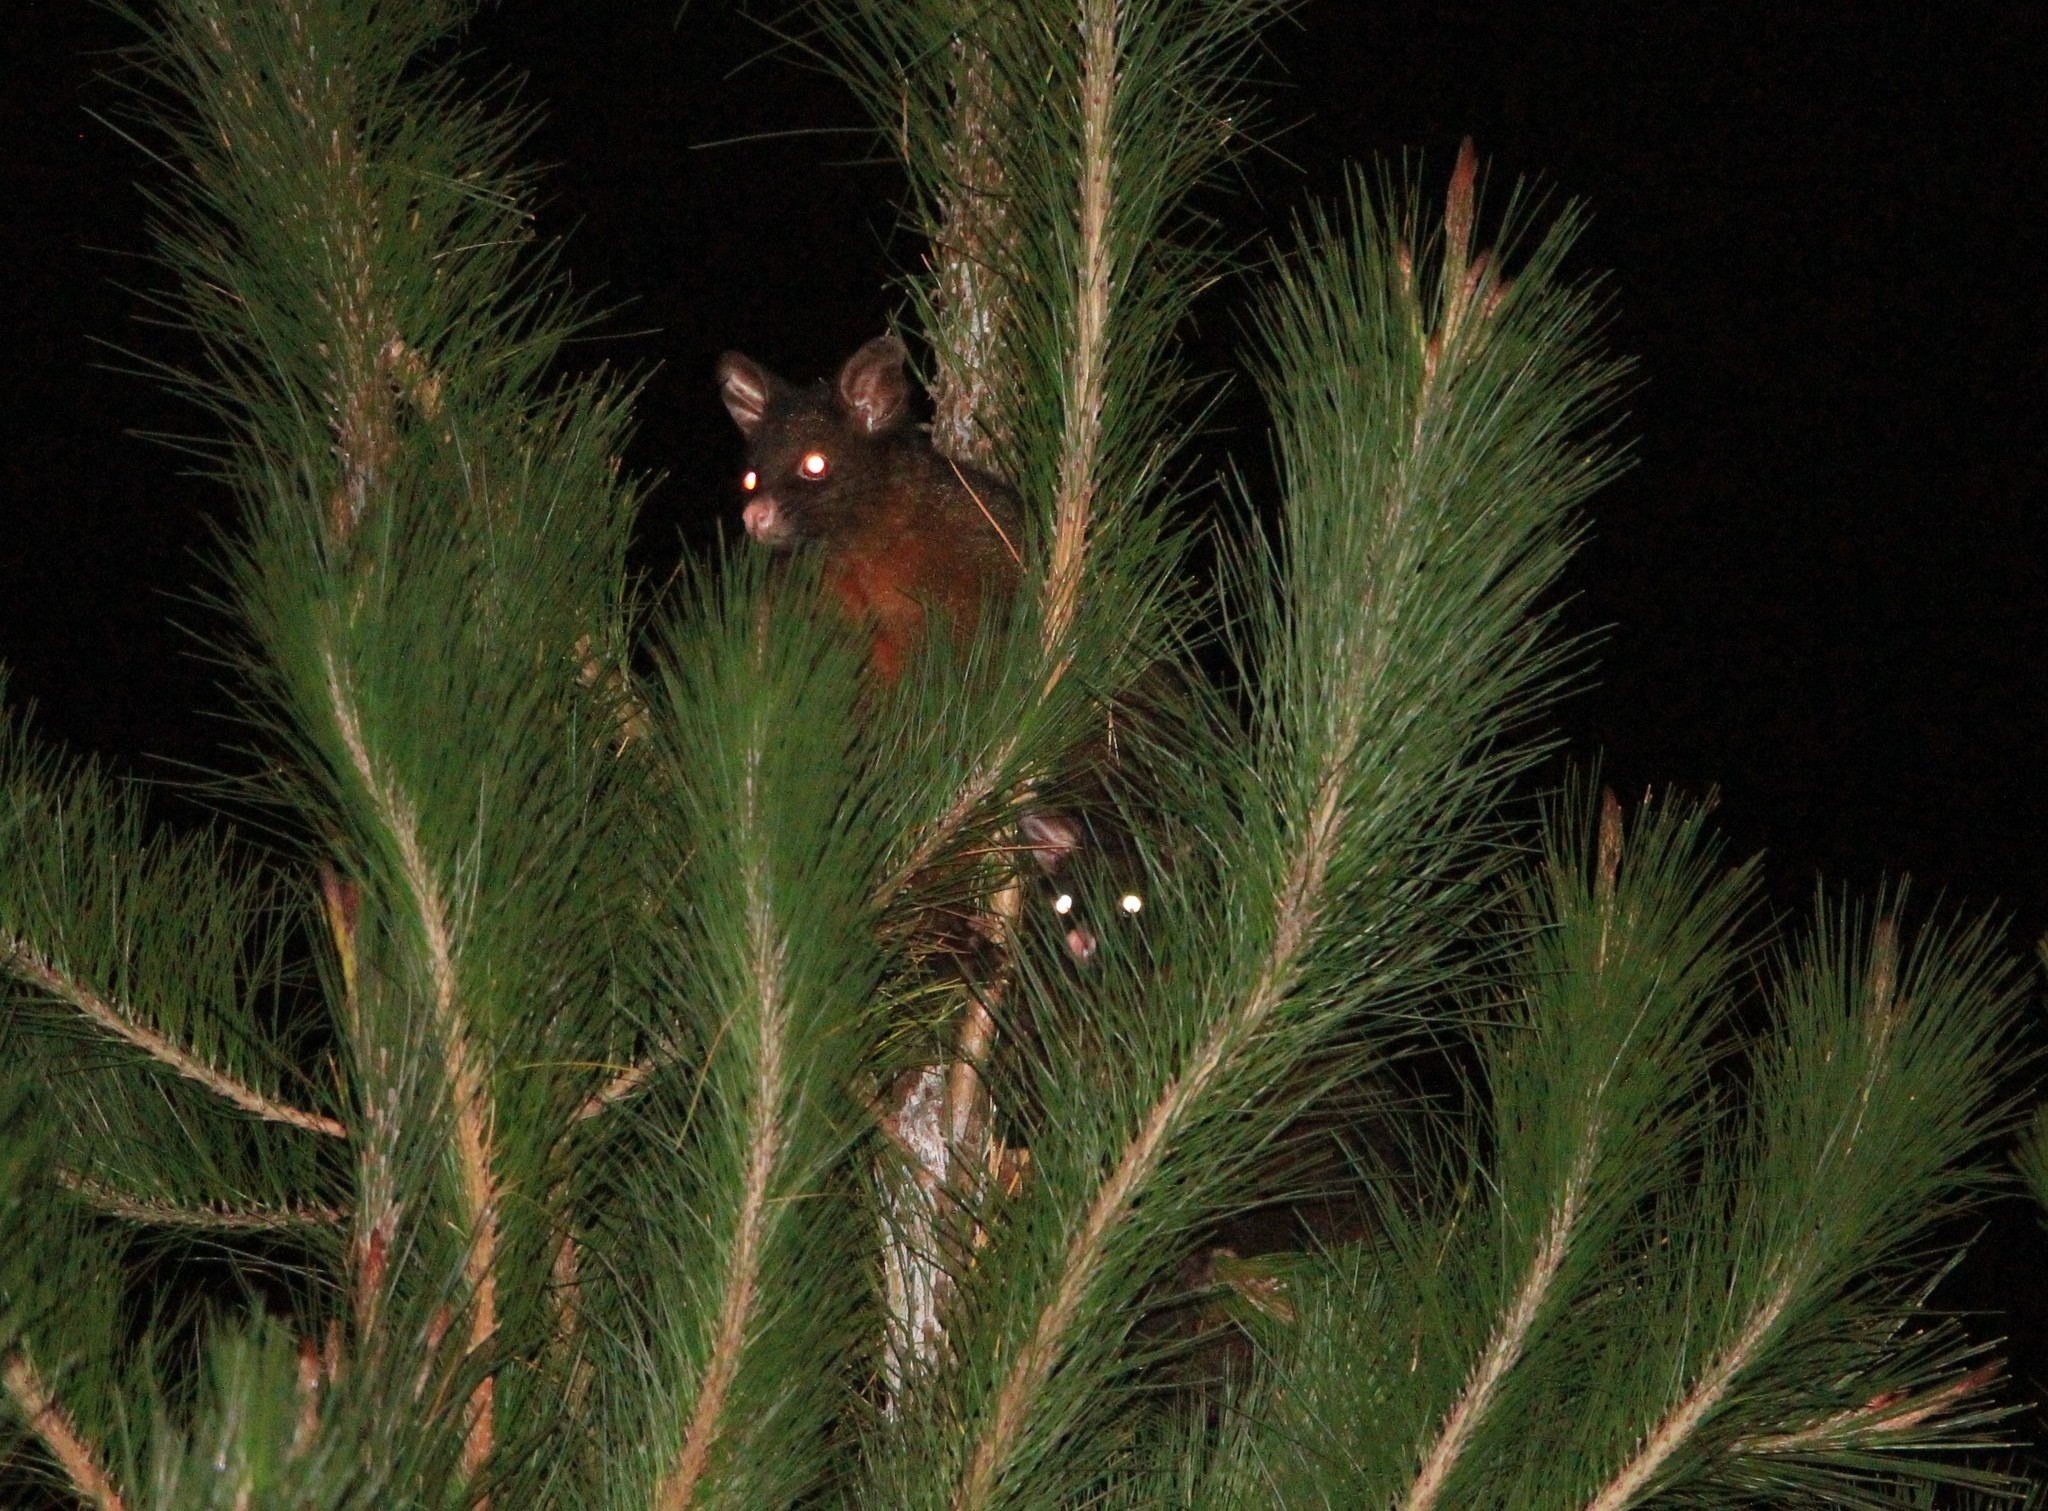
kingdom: Animalia
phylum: Chordata
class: Mammalia
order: Diprotodontia
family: Phalangeridae
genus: Trichosurus
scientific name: Trichosurus vulpecula
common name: Common brushtail
